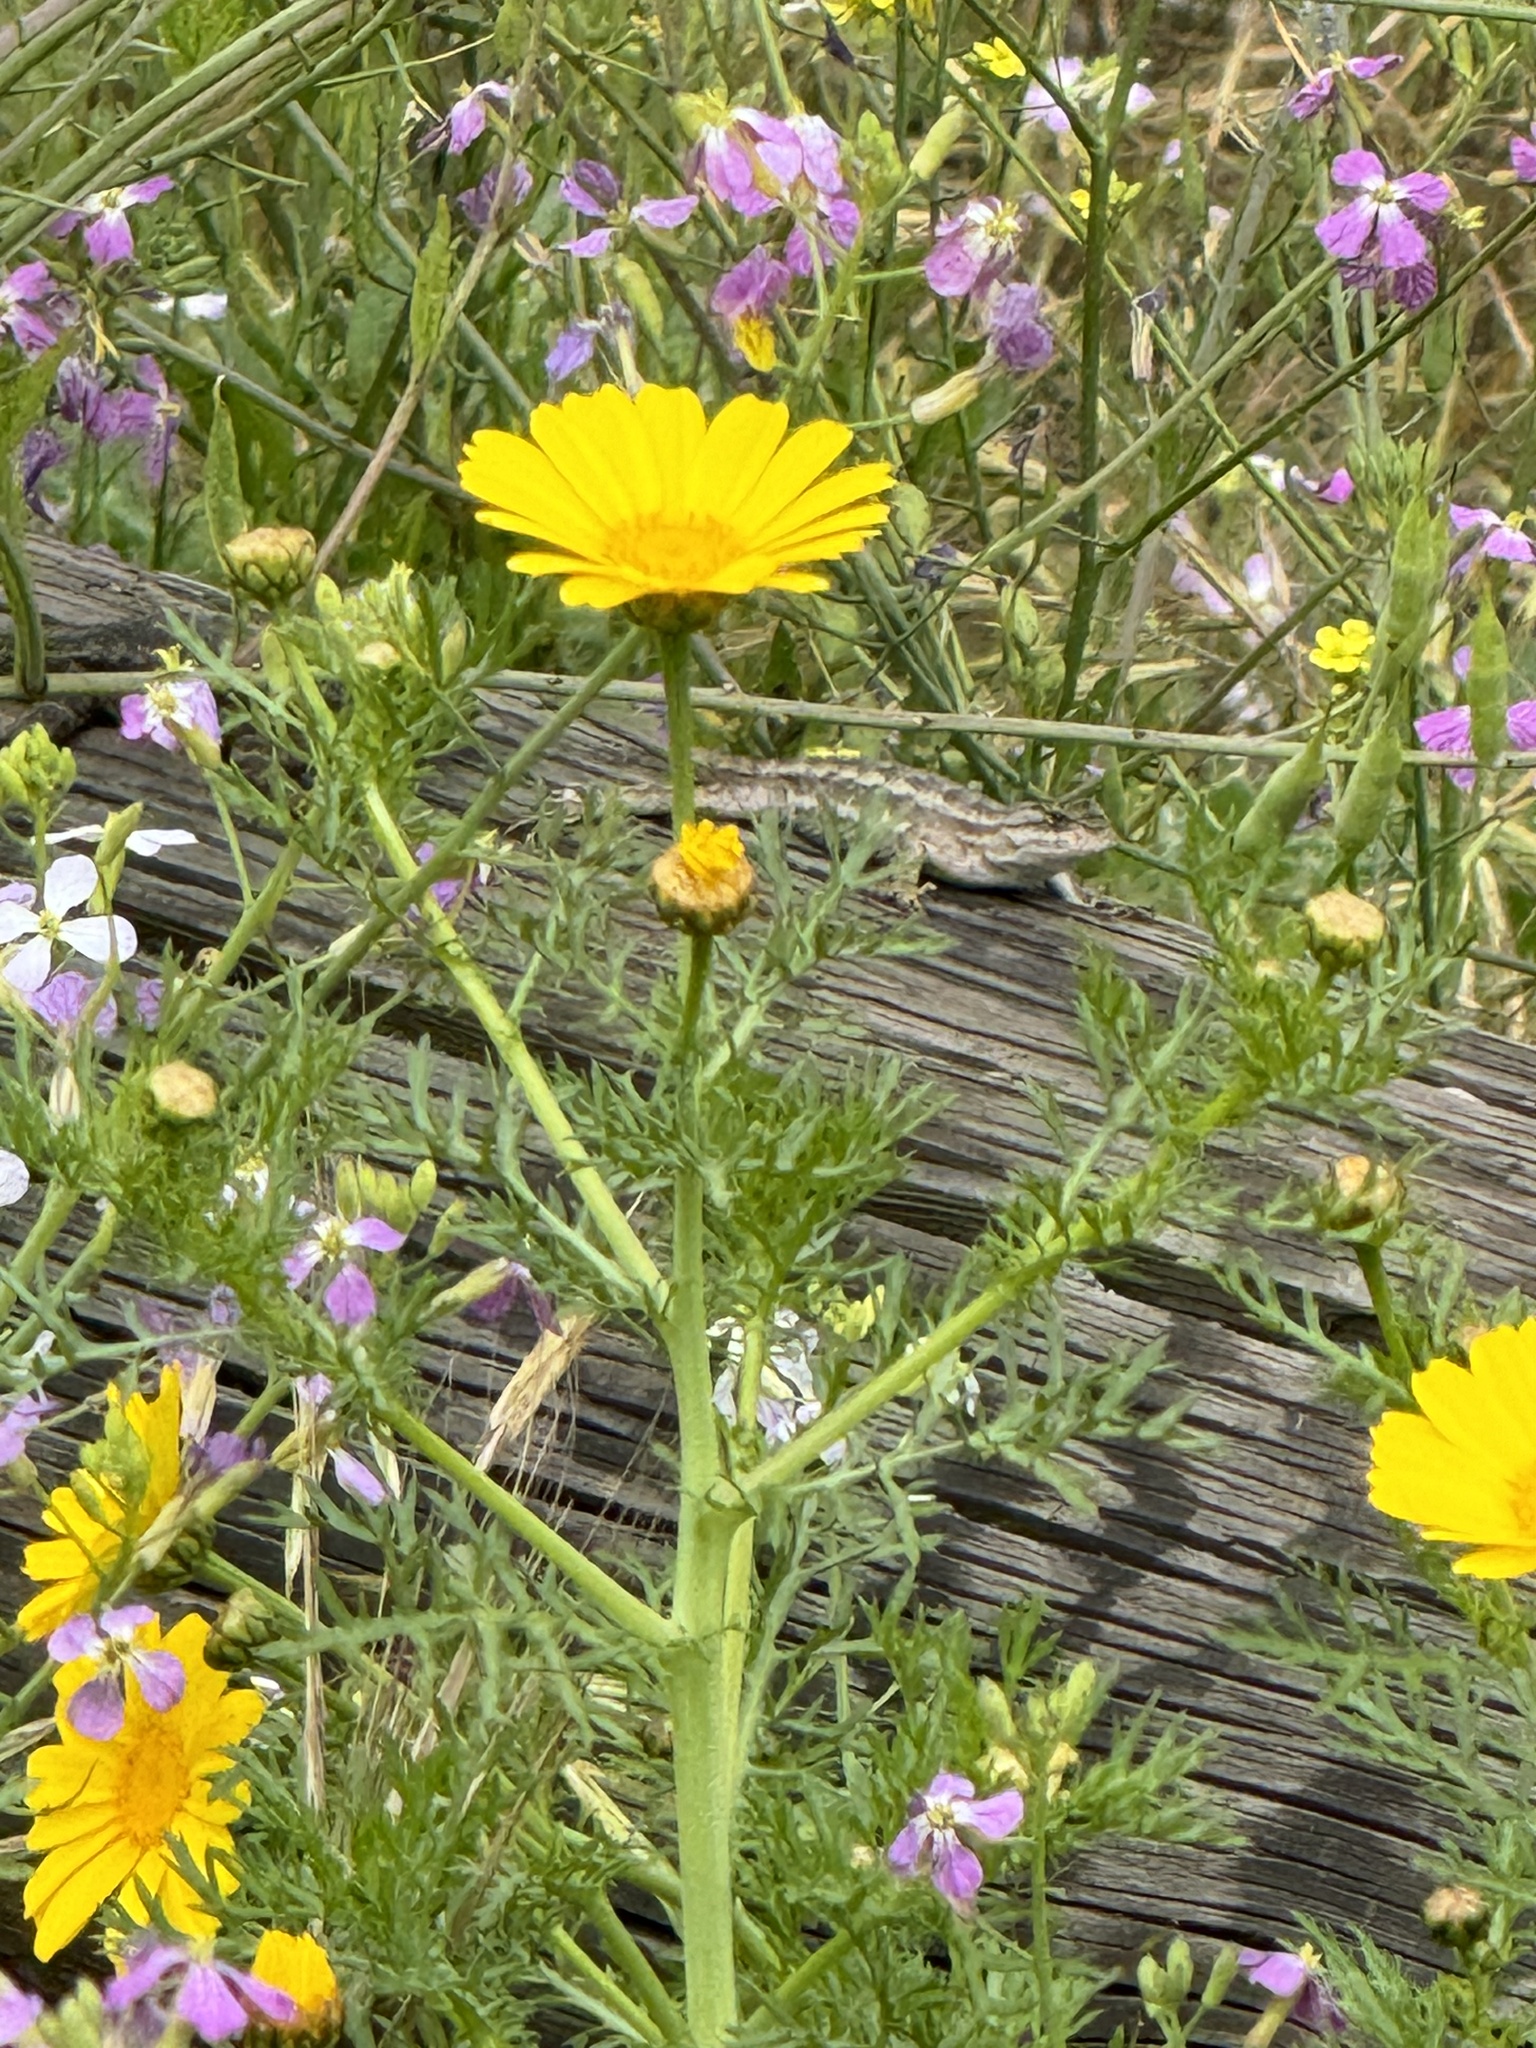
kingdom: Animalia
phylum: Chordata
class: Squamata
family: Phrynosomatidae
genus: Sceloporus
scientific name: Sceloporus occidentalis
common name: Western fence lizard
